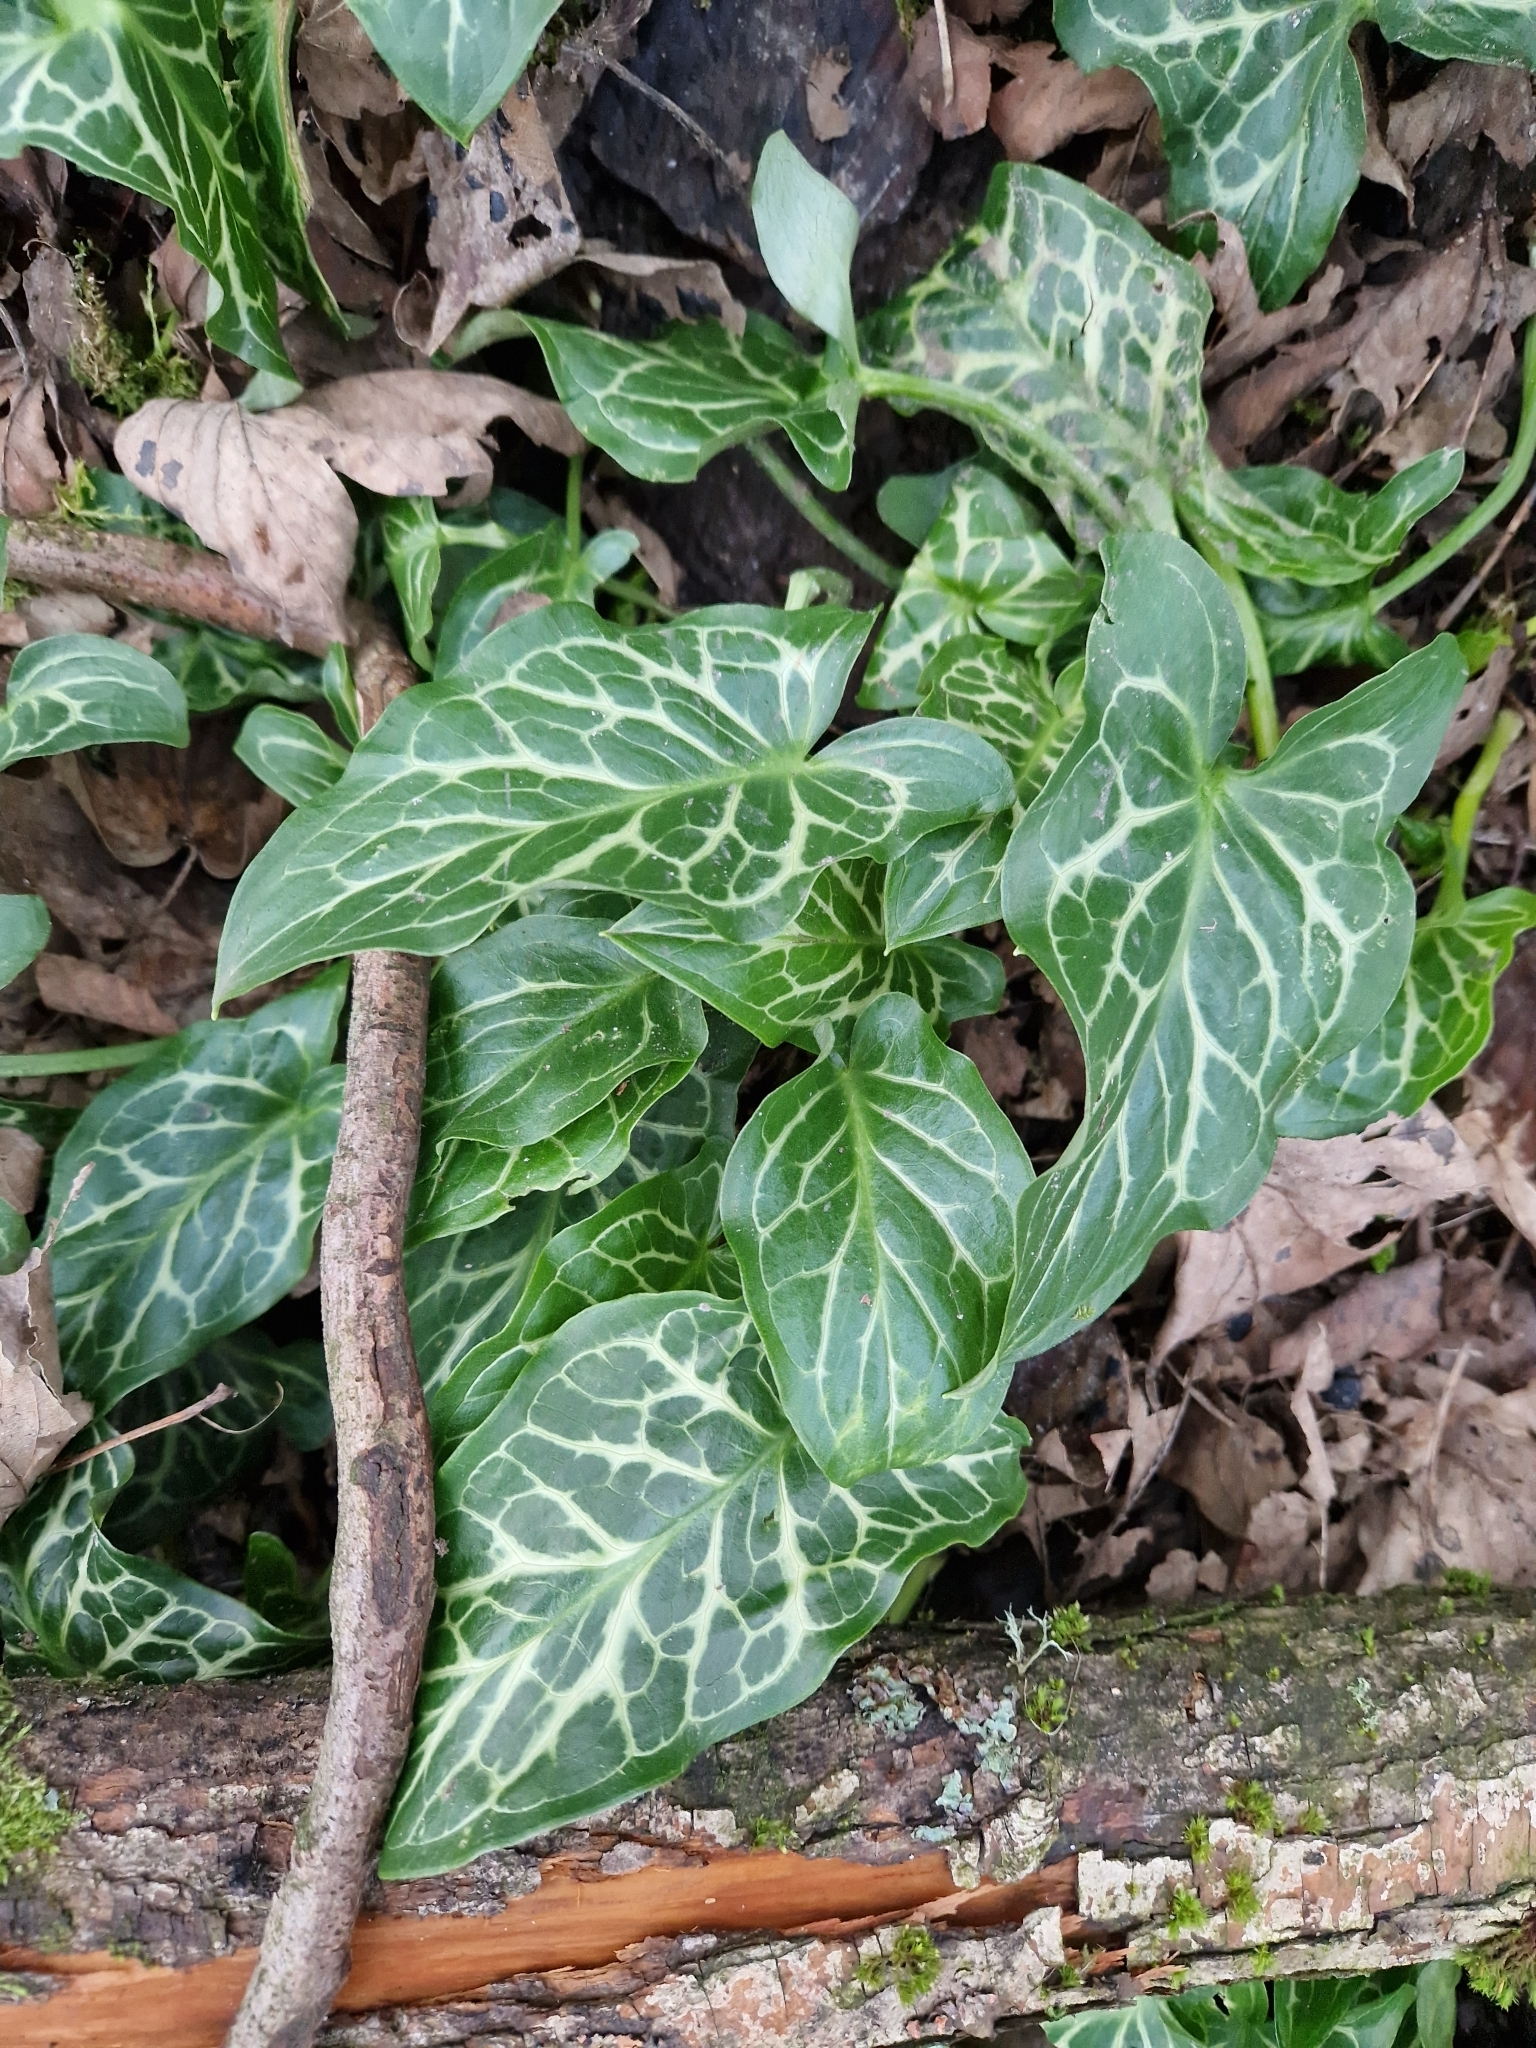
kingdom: Plantae
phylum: Tracheophyta
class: Liliopsida
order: Alismatales
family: Araceae
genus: Arum
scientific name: Arum italicum
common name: Italian lords-and-ladies
